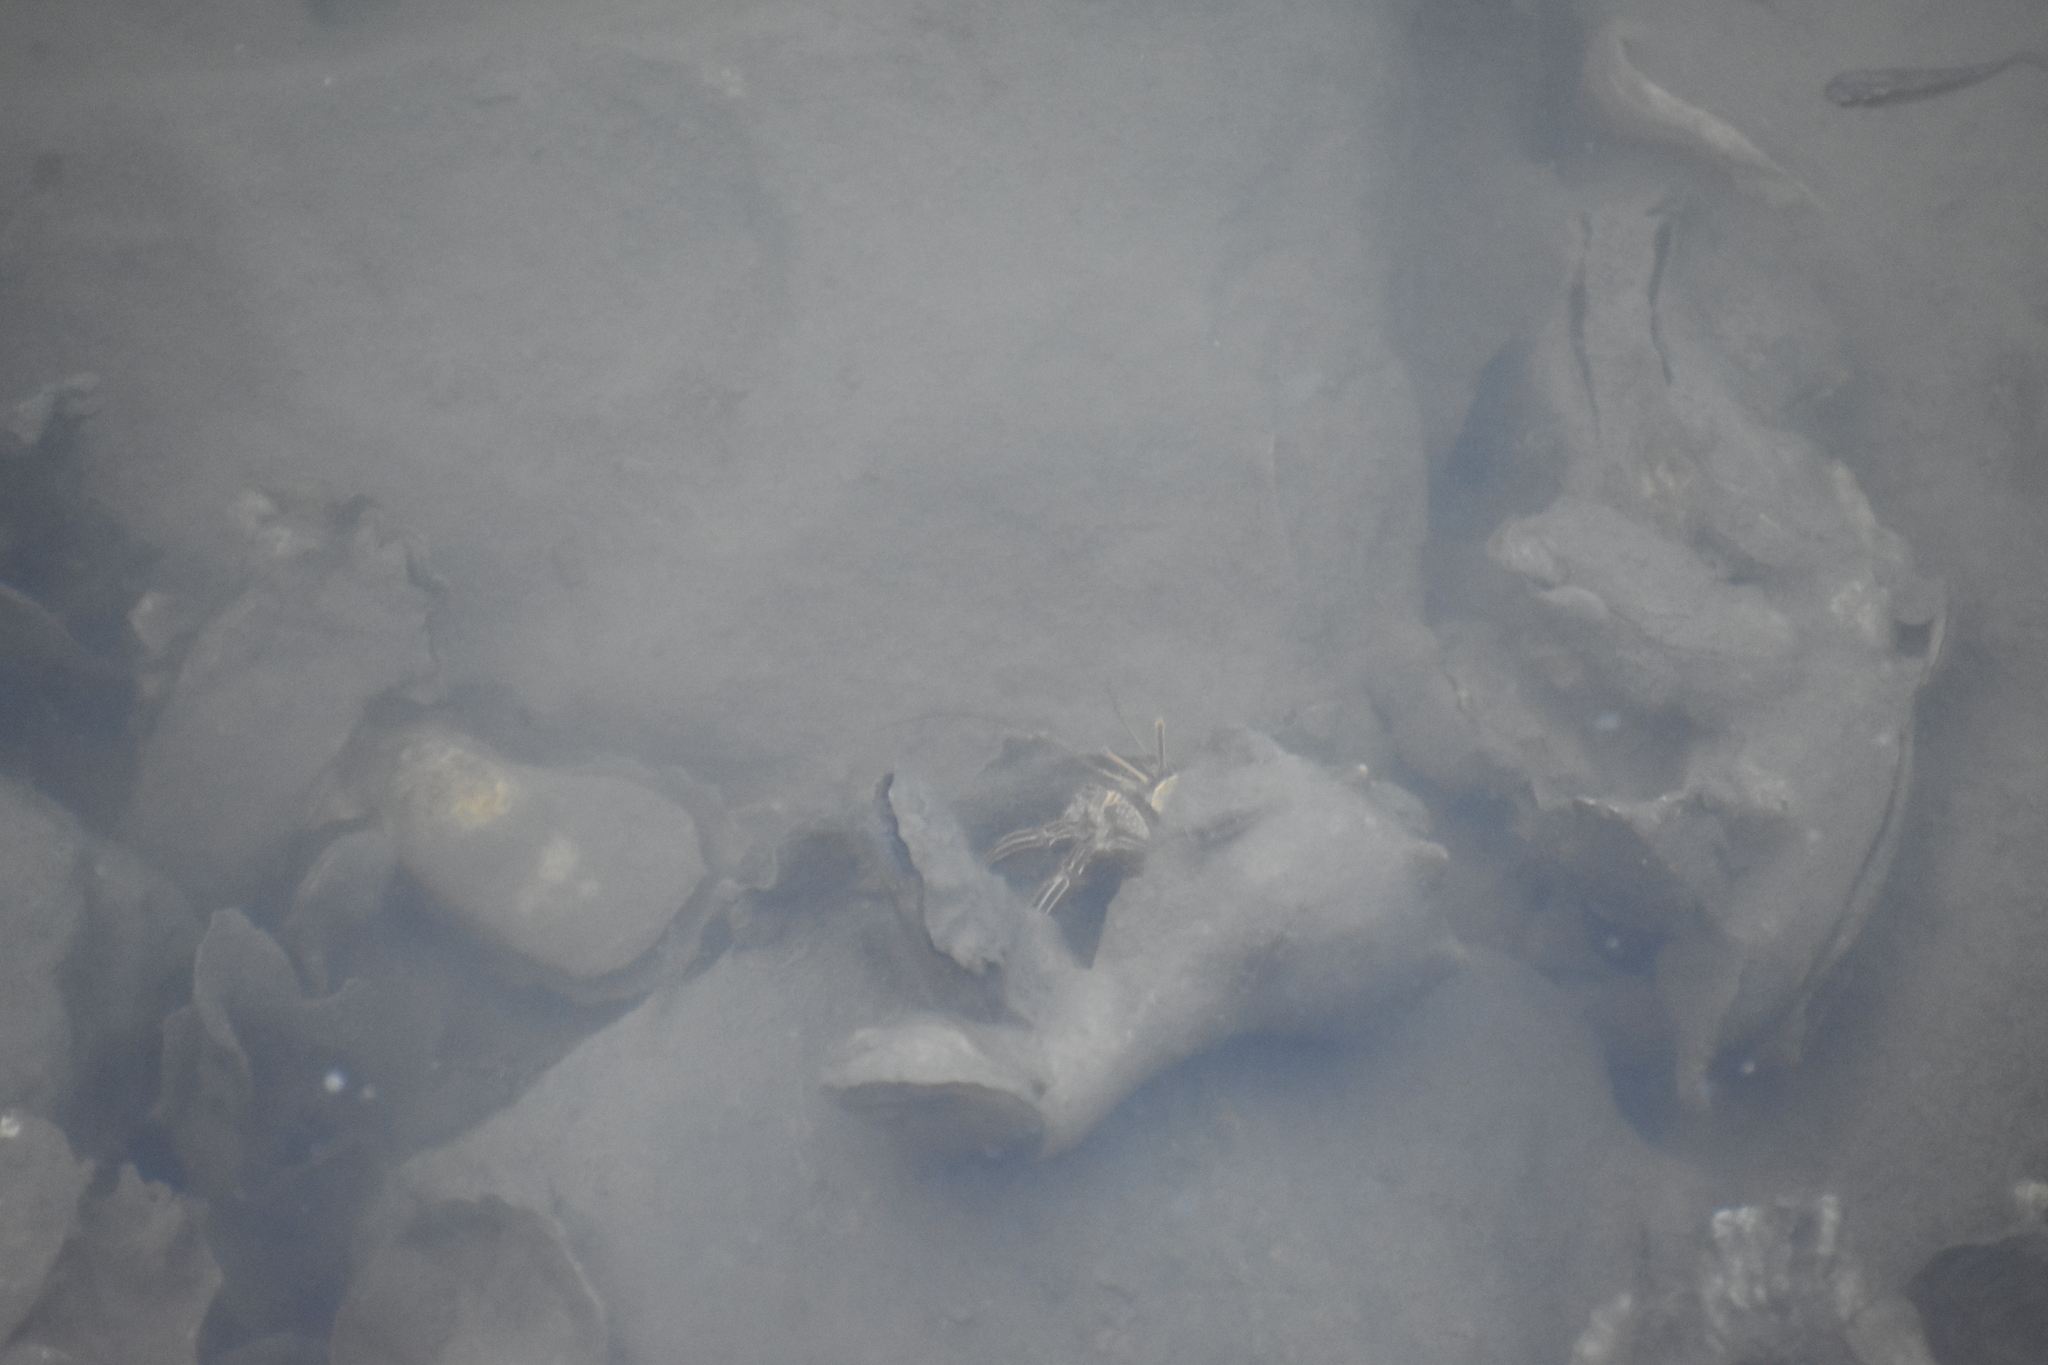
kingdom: Animalia
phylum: Arthropoda
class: Malacostraca
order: Decapoda
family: Diogenidae
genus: Clibanarius
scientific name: Clibanarius vittatus
